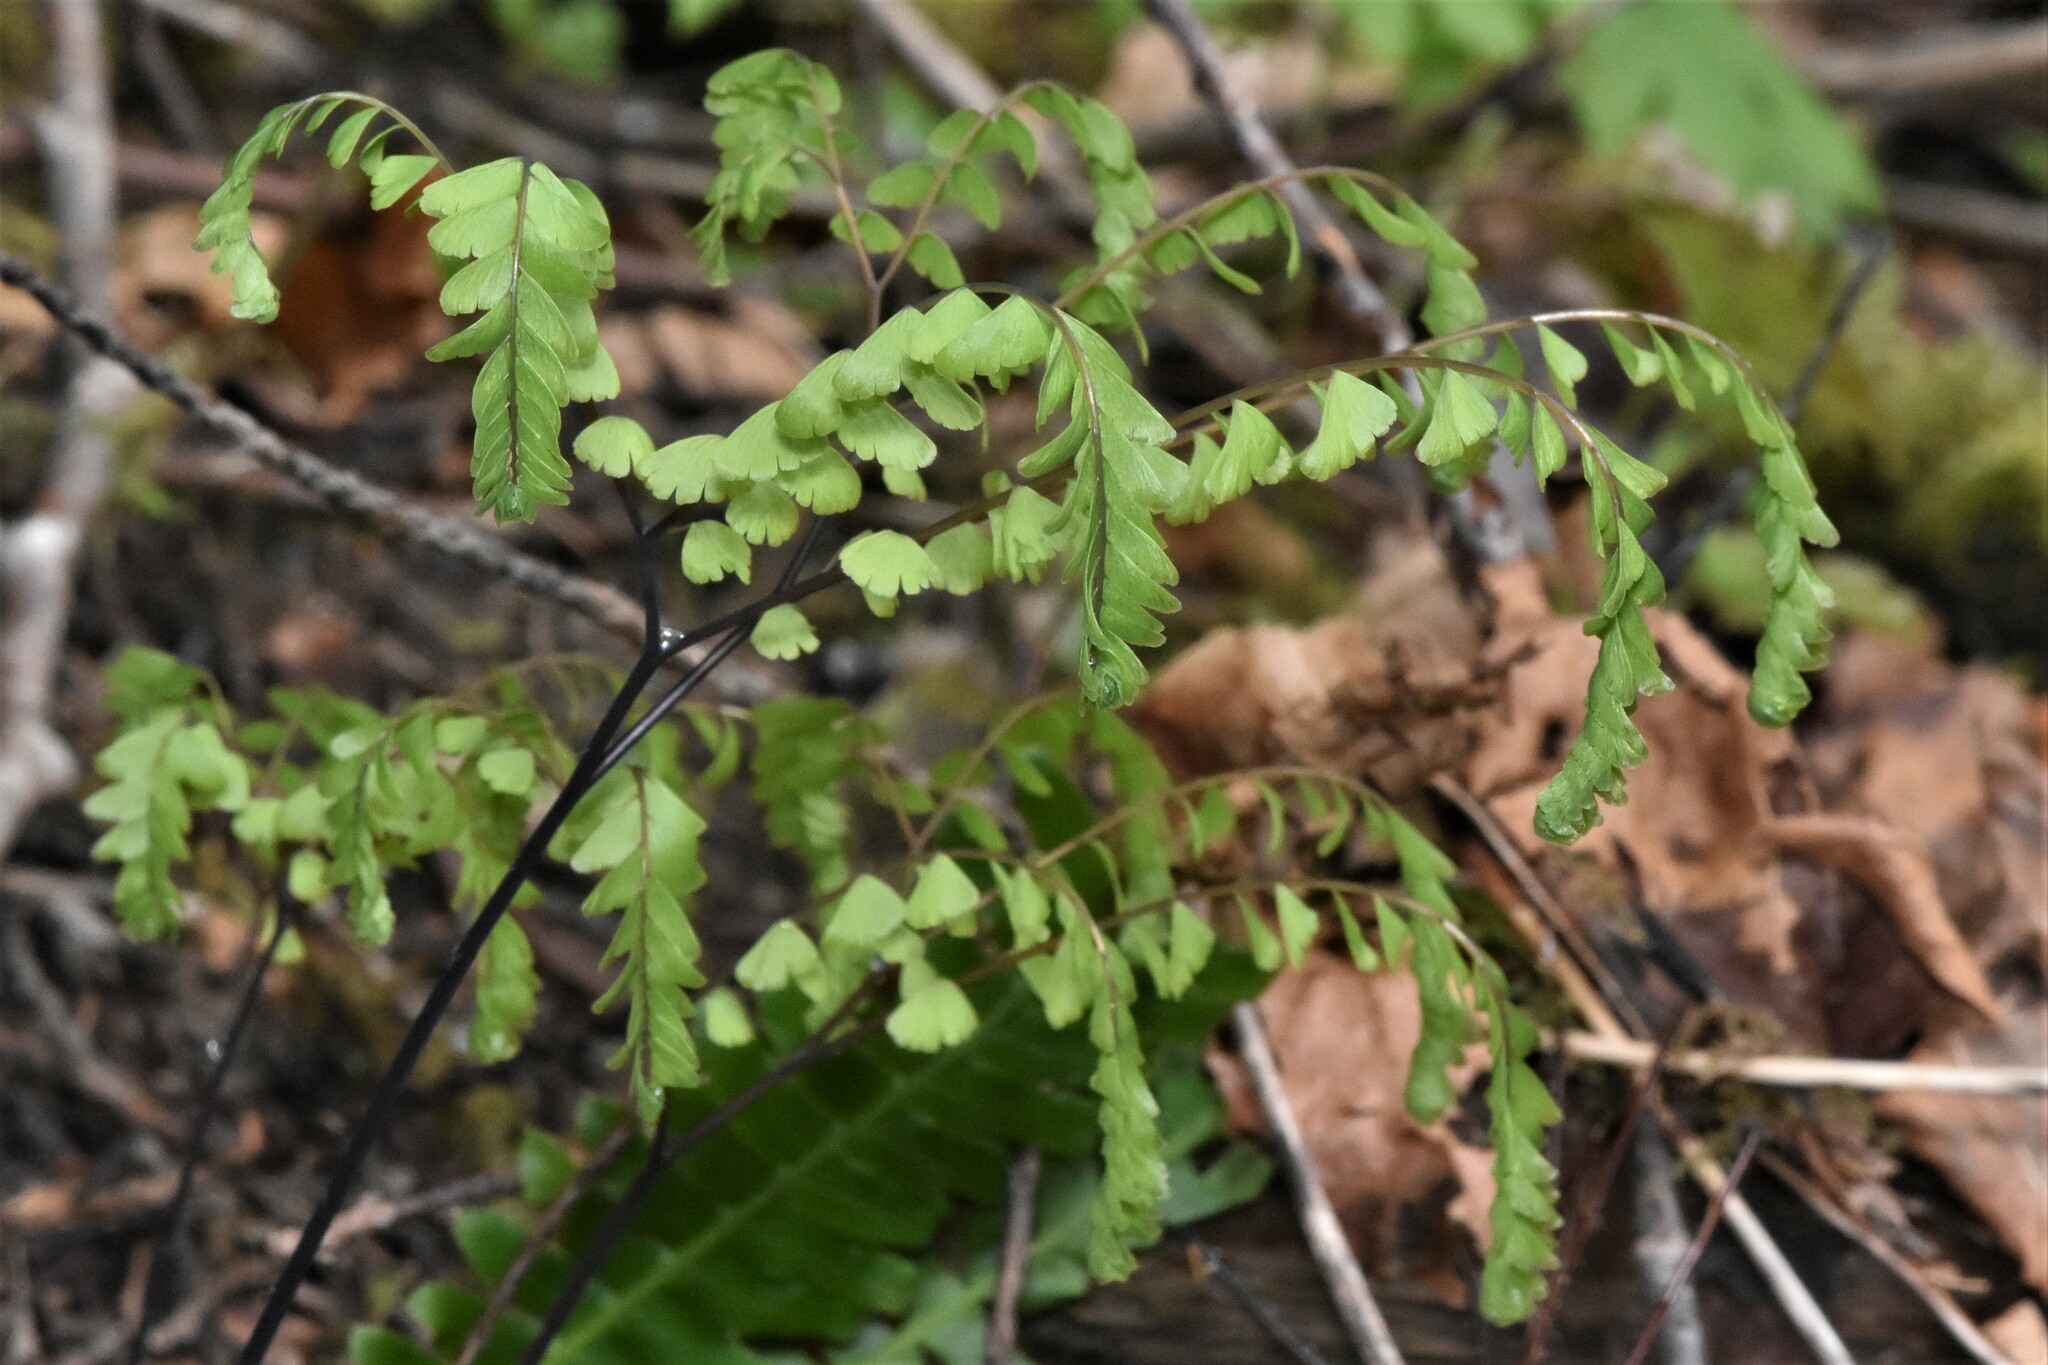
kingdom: Plantae
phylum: Tracheophyta
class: Polypodiopsida
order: Polypodiales
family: Pteridaceae
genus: Adiantum
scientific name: Adiantum aleuticum
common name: Aleutian maidenhair fern
